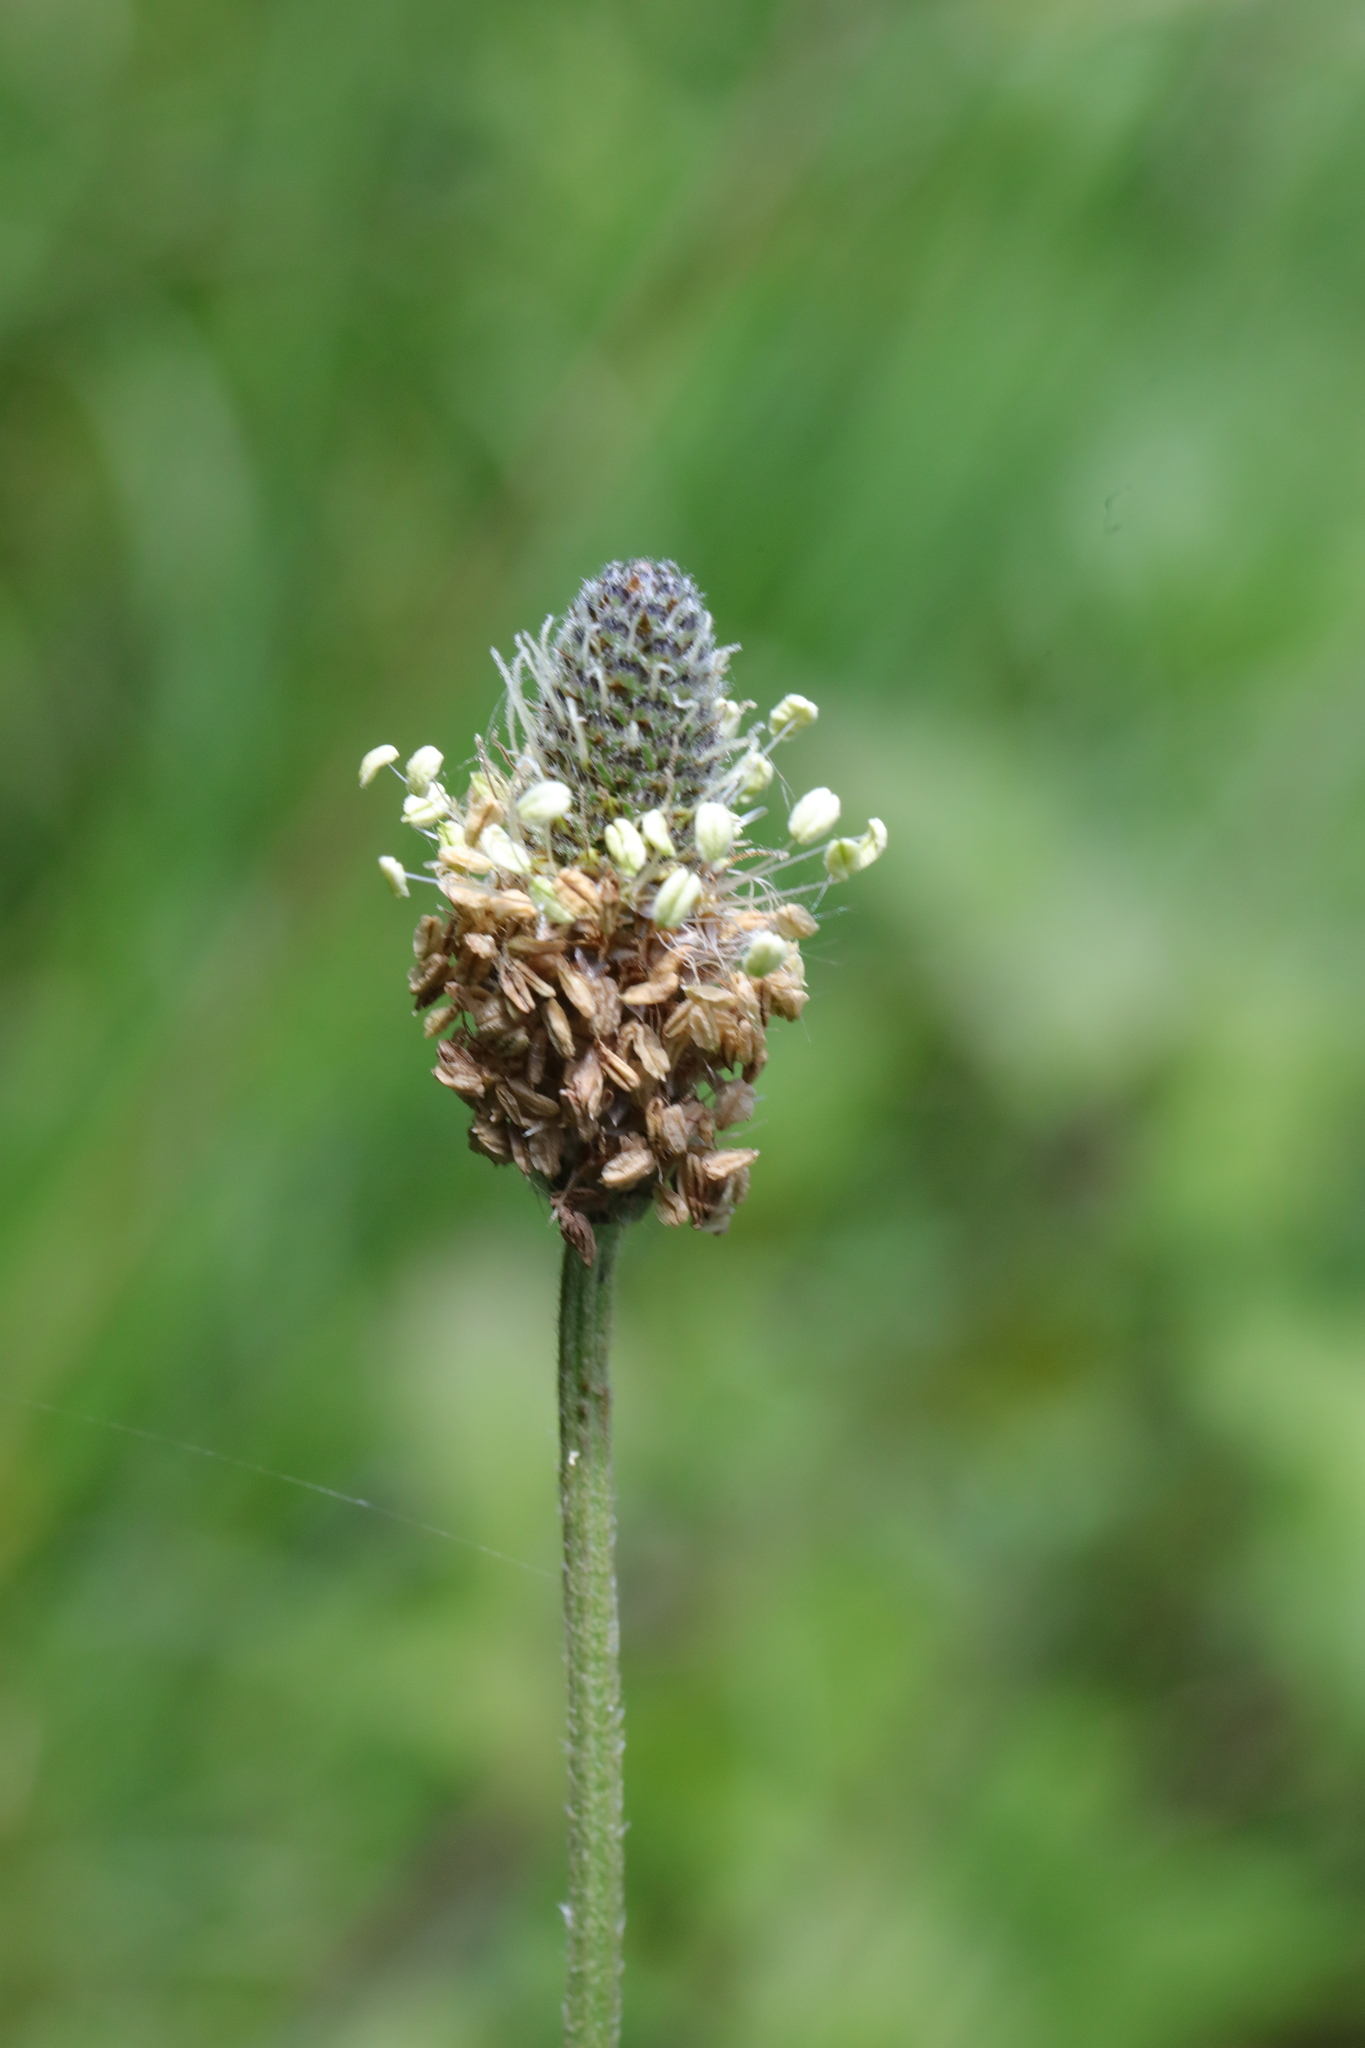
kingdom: Plantae
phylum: Tracheophyta
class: Magnoliopsida
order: Lamiales
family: Plantaginaceae
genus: Plantago
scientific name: Plantago lanceolata
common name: Ribwort plantain
